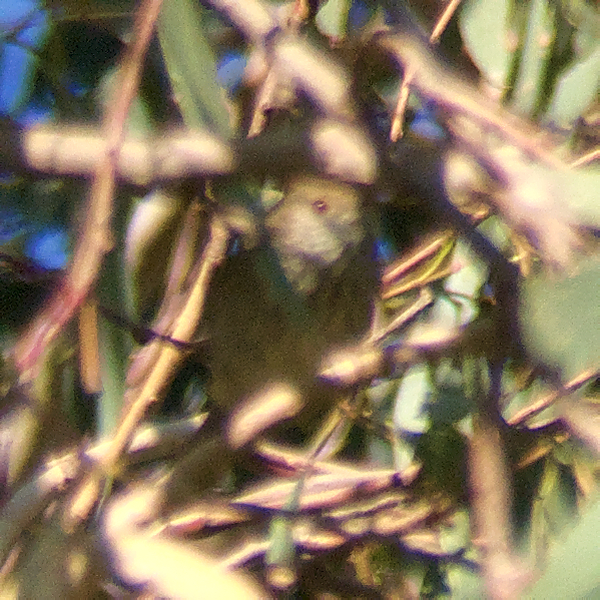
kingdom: Animalia
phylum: Chordata
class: Aves
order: Passeriformes
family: Acanthizidae
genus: Acanthiza
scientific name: Acanthiza pusilla
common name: Brown thornbill
